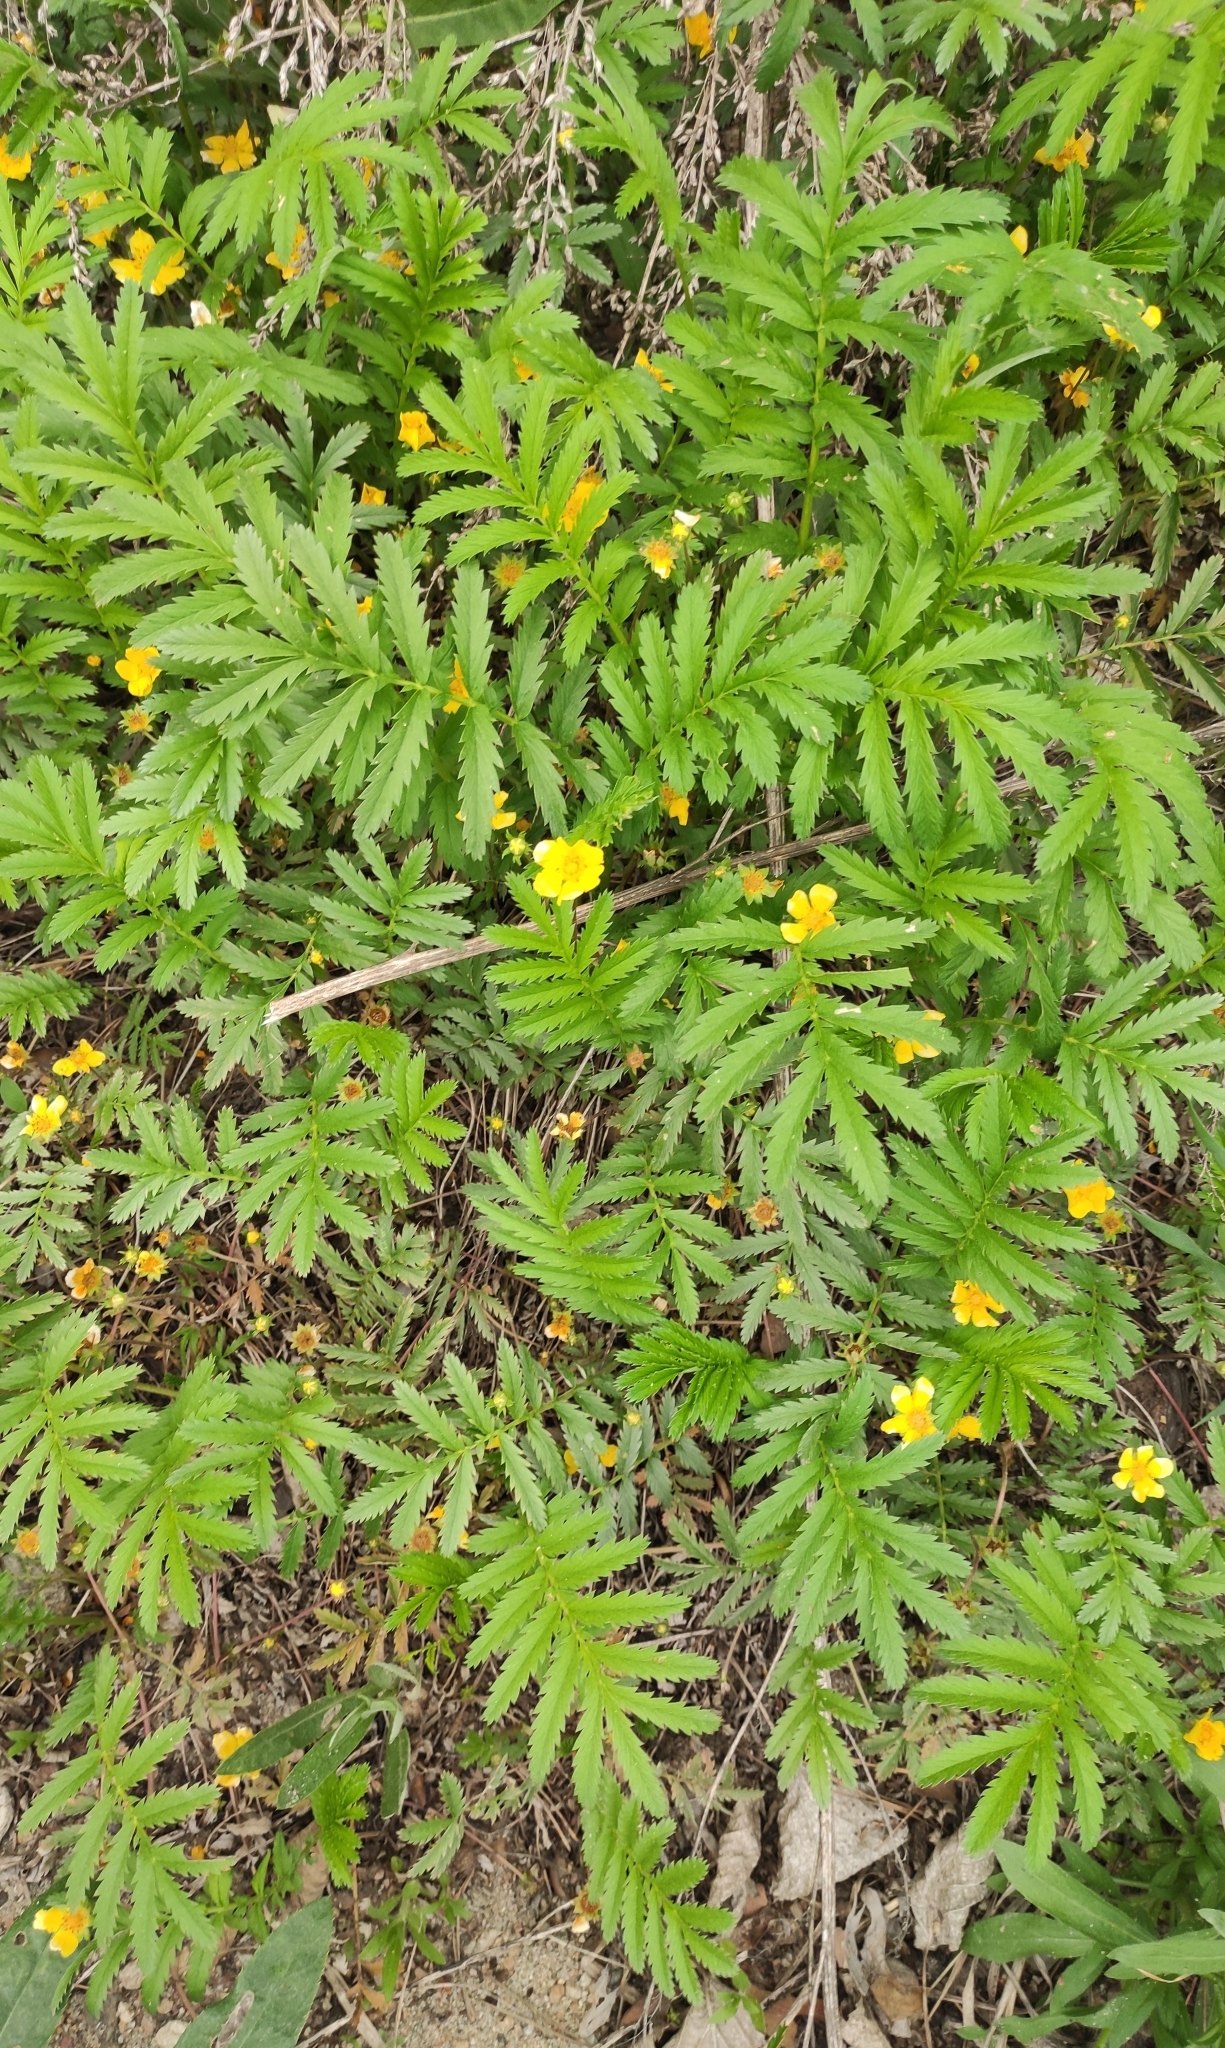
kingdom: Plantae
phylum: Tracheophyta
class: Magnoliopsida
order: Rosales
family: Rosaceae
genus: Argentina
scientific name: Argentina anserina
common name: Common silverweed
